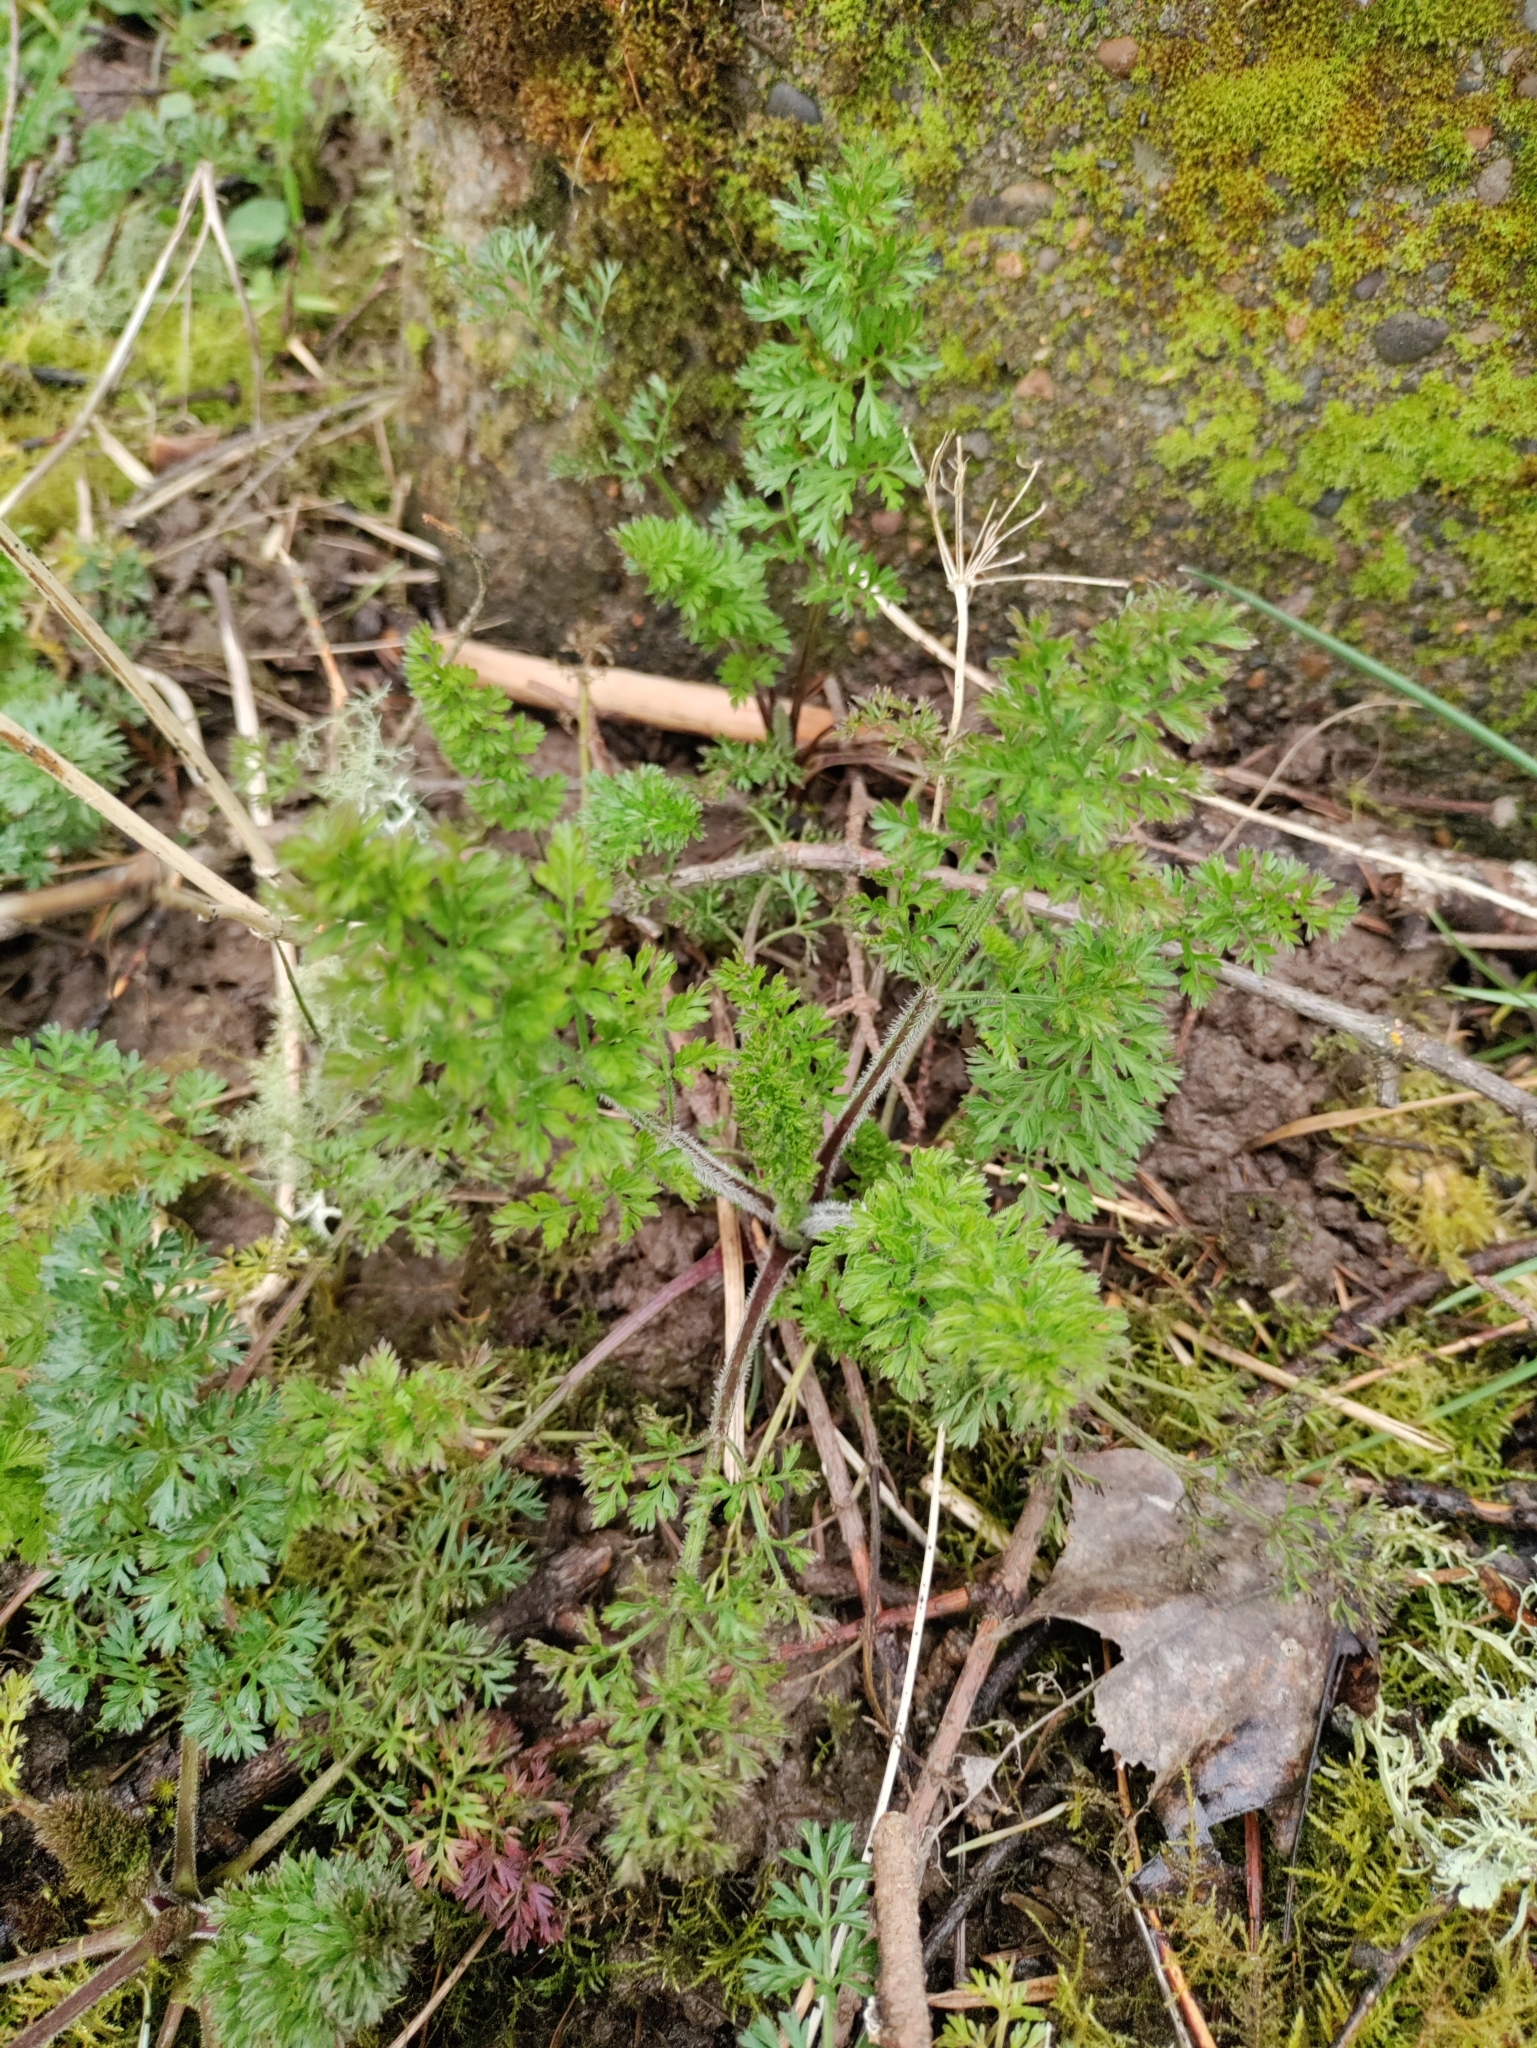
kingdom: Plantae
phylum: Tracheophyta
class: Magnoliopsida
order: Apiales
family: Apiaceae
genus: Daucus
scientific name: Daucus carota
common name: Wild carrot
